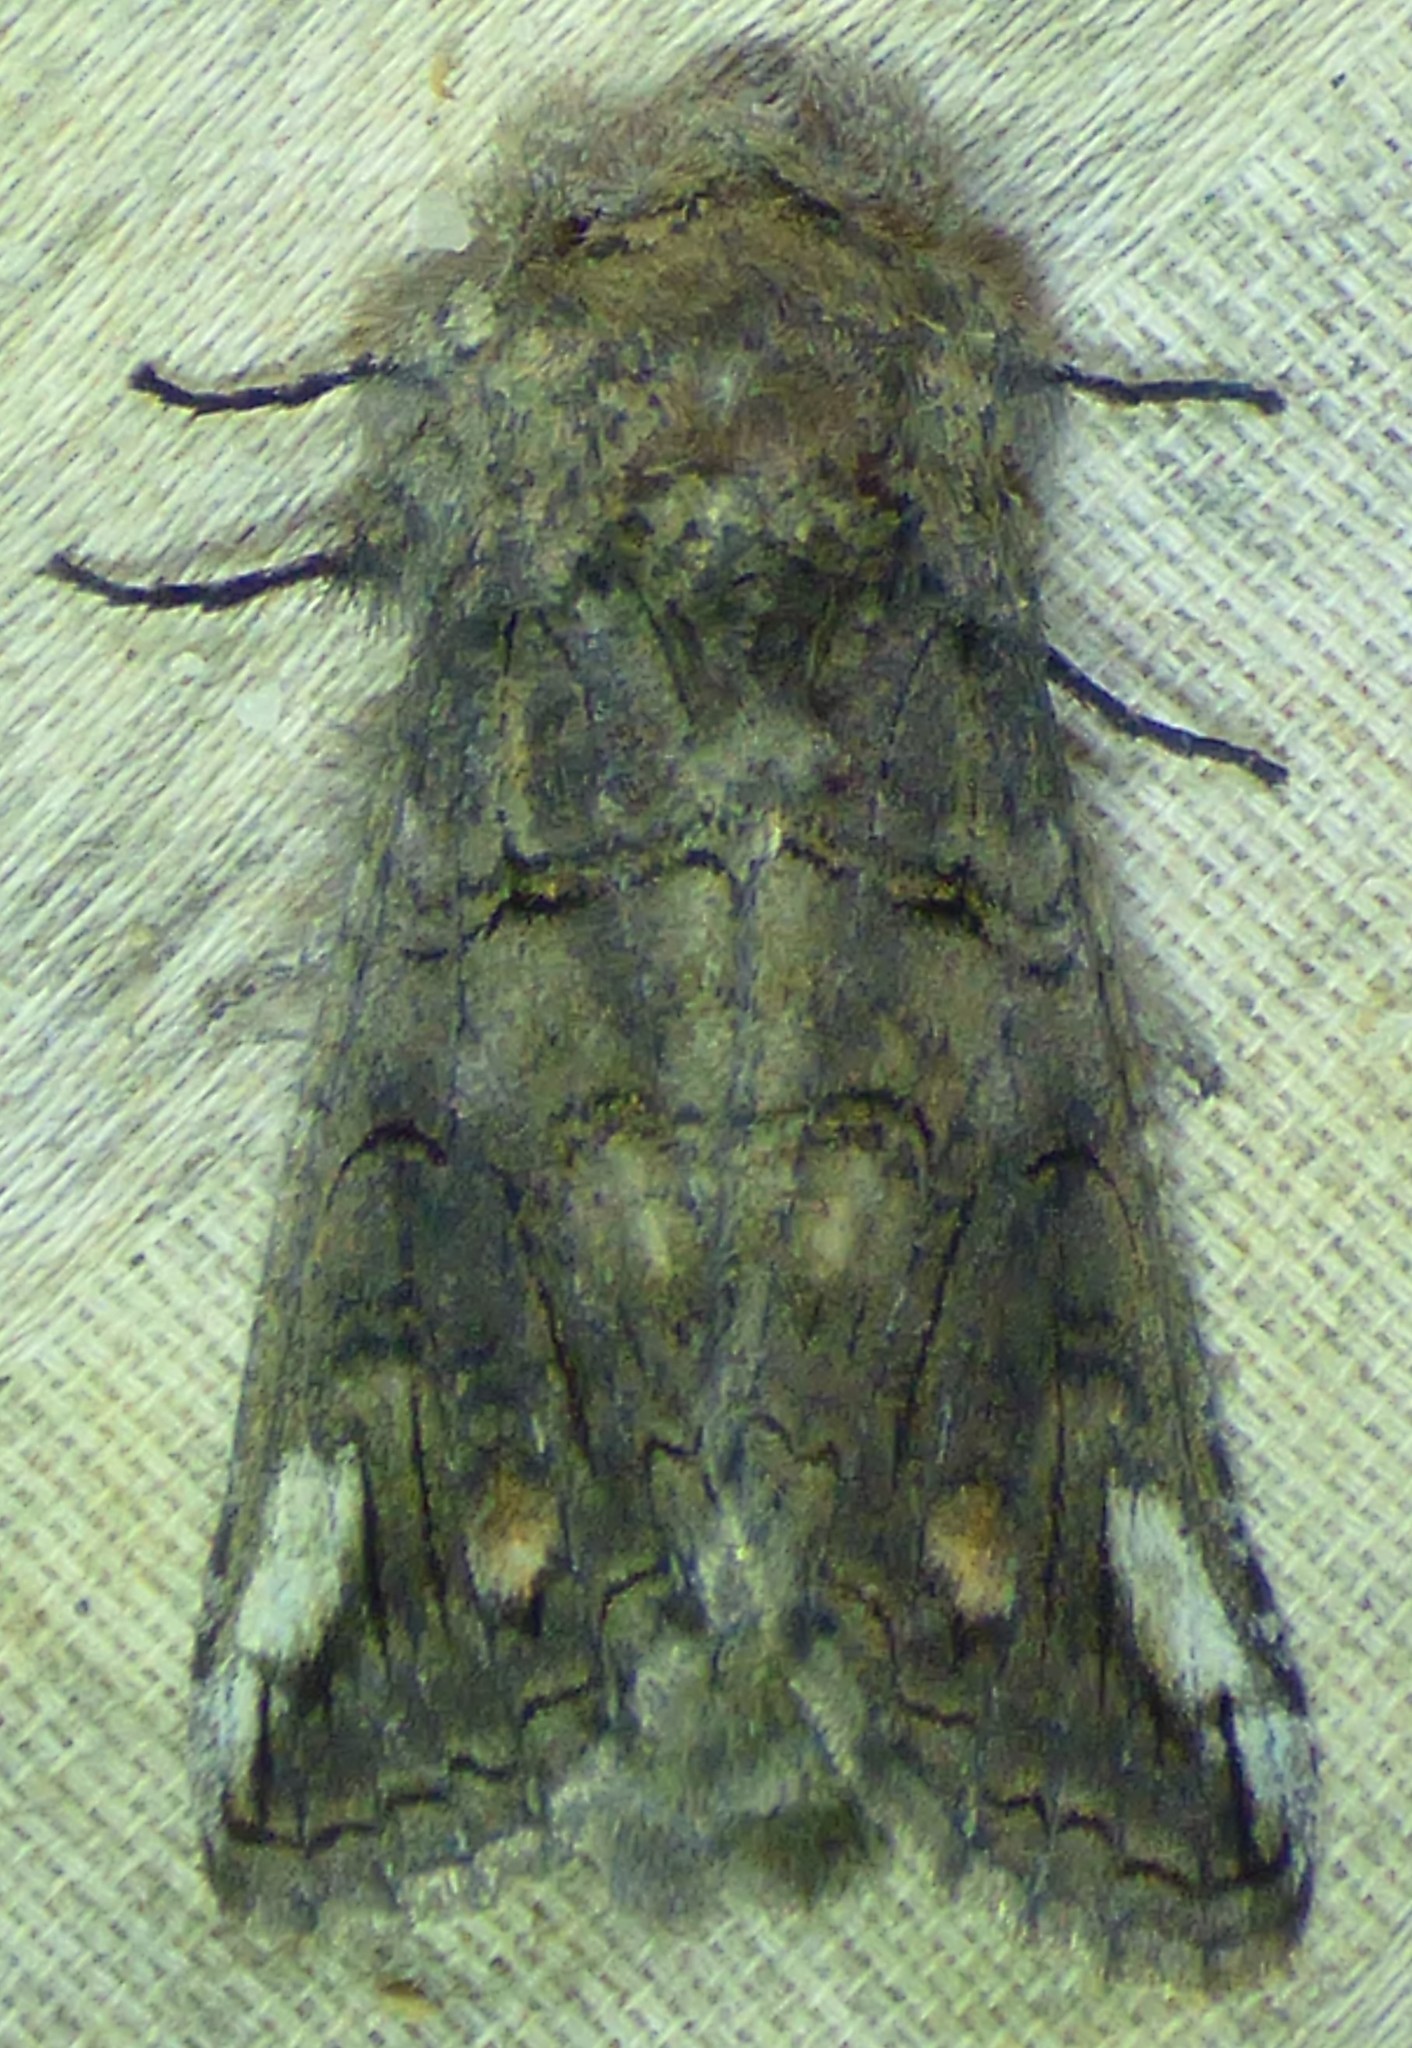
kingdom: Animalia
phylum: Arthropoda
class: Insecta
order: Lepidoptera
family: Notodontidae
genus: Heterocampa
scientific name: Heterocampa obliqua
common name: Oblique heterocampa
